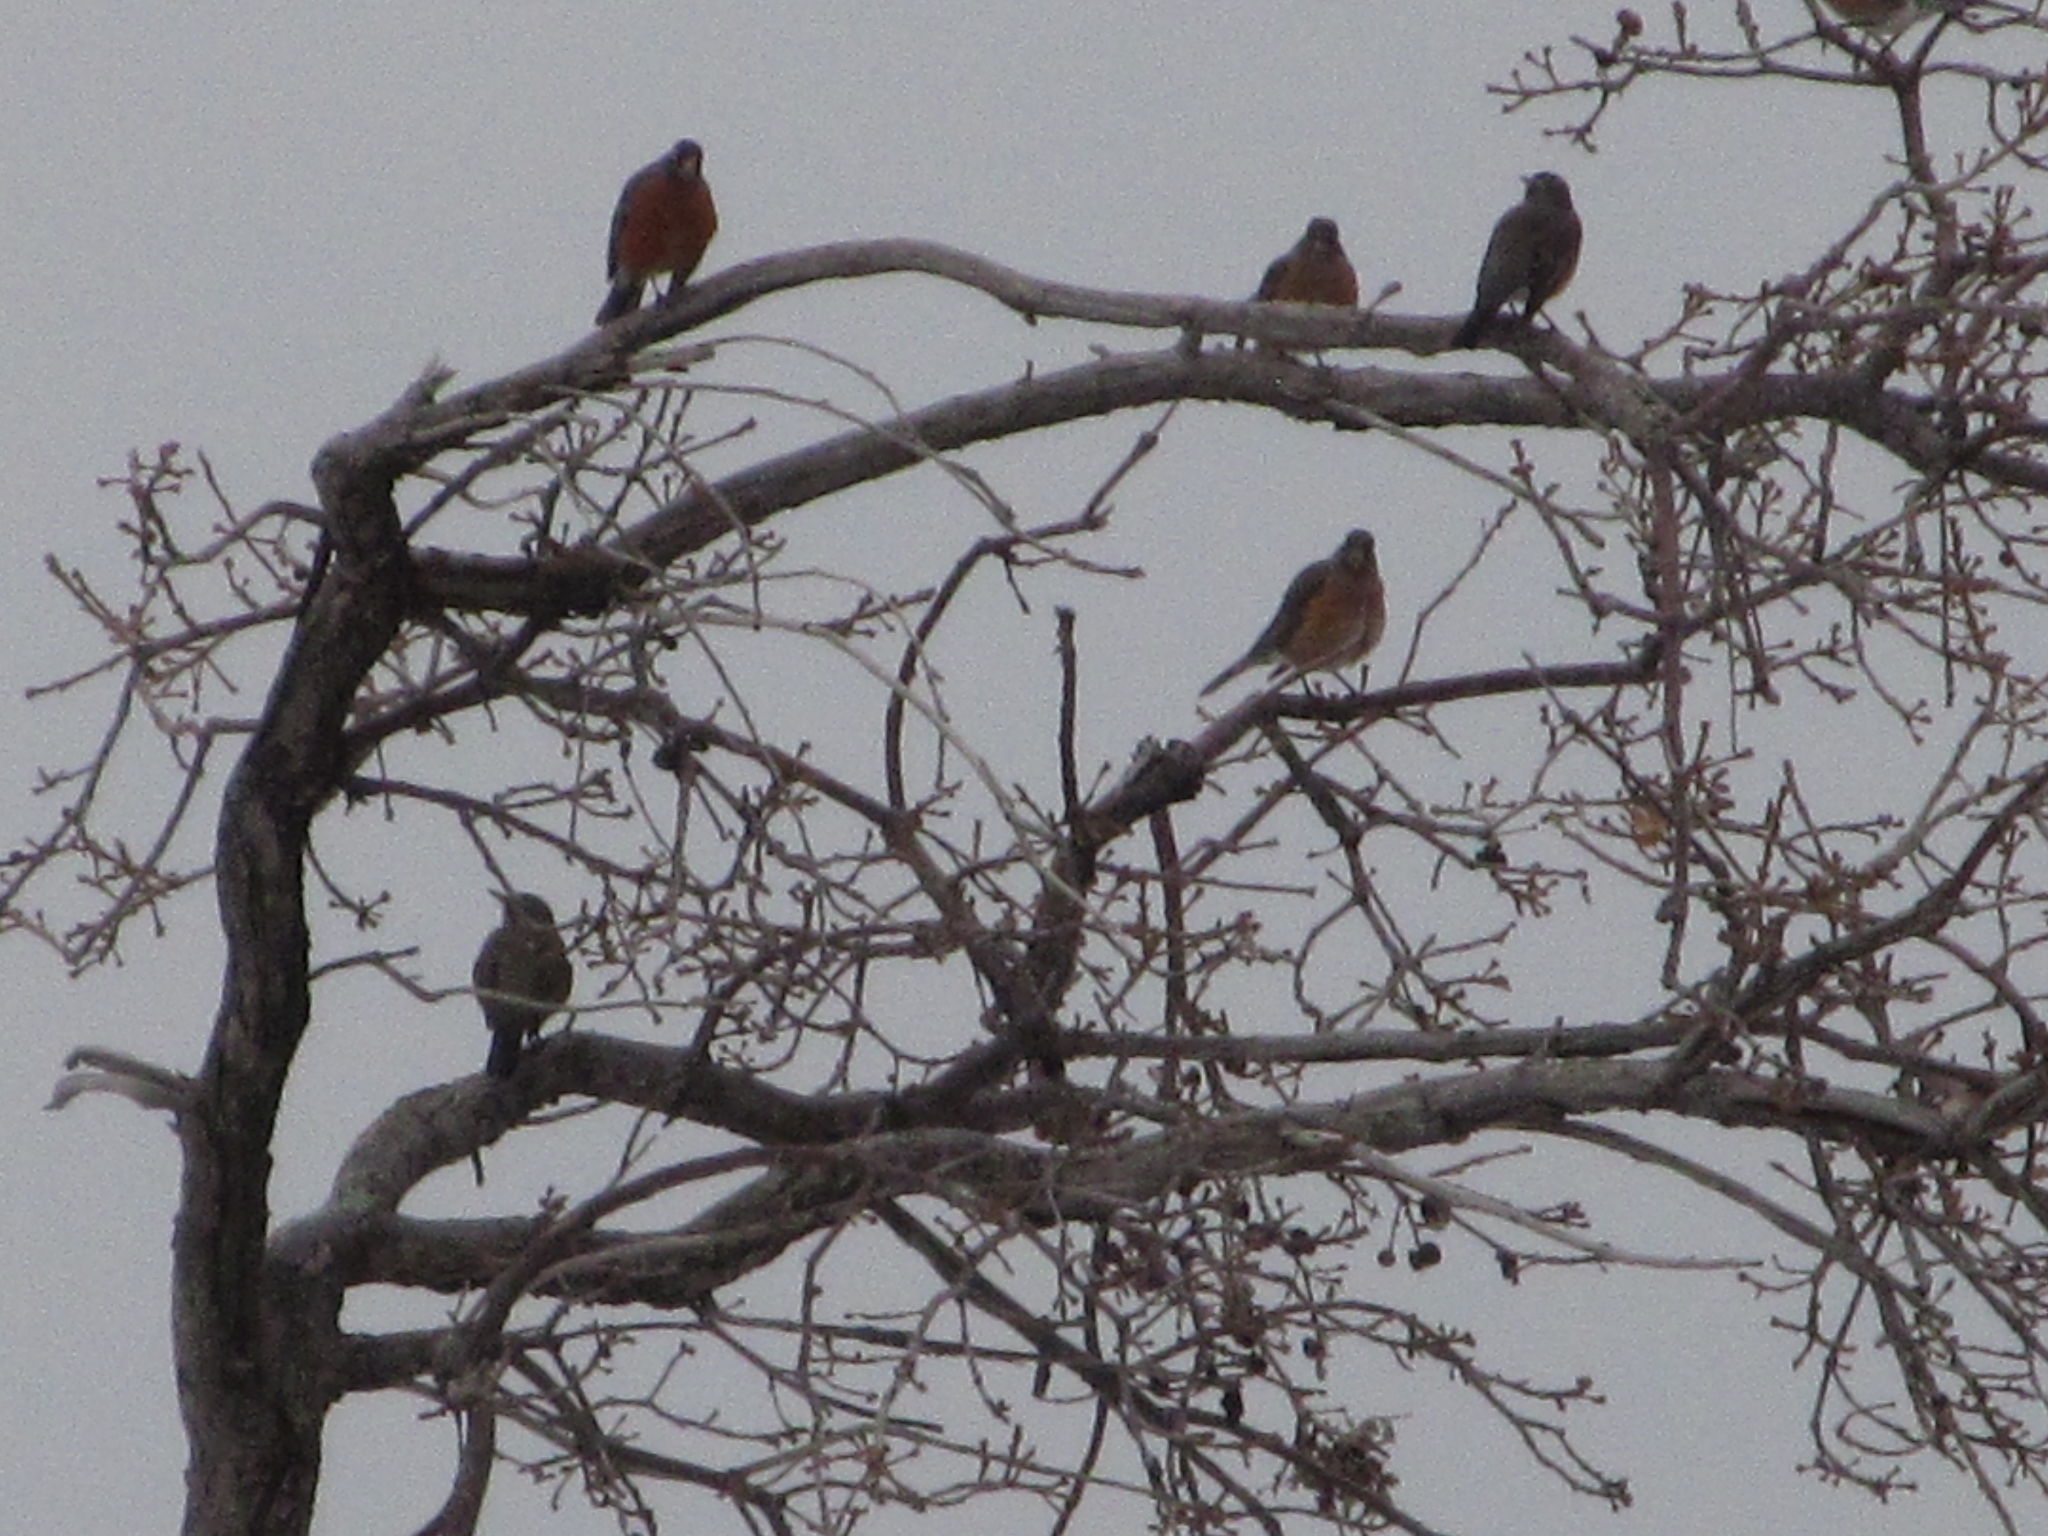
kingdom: Animalia
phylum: Chordata
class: Aves
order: Passeriformes
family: Turdidae
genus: Turdus
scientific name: Turdus migratorius
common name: American robin
